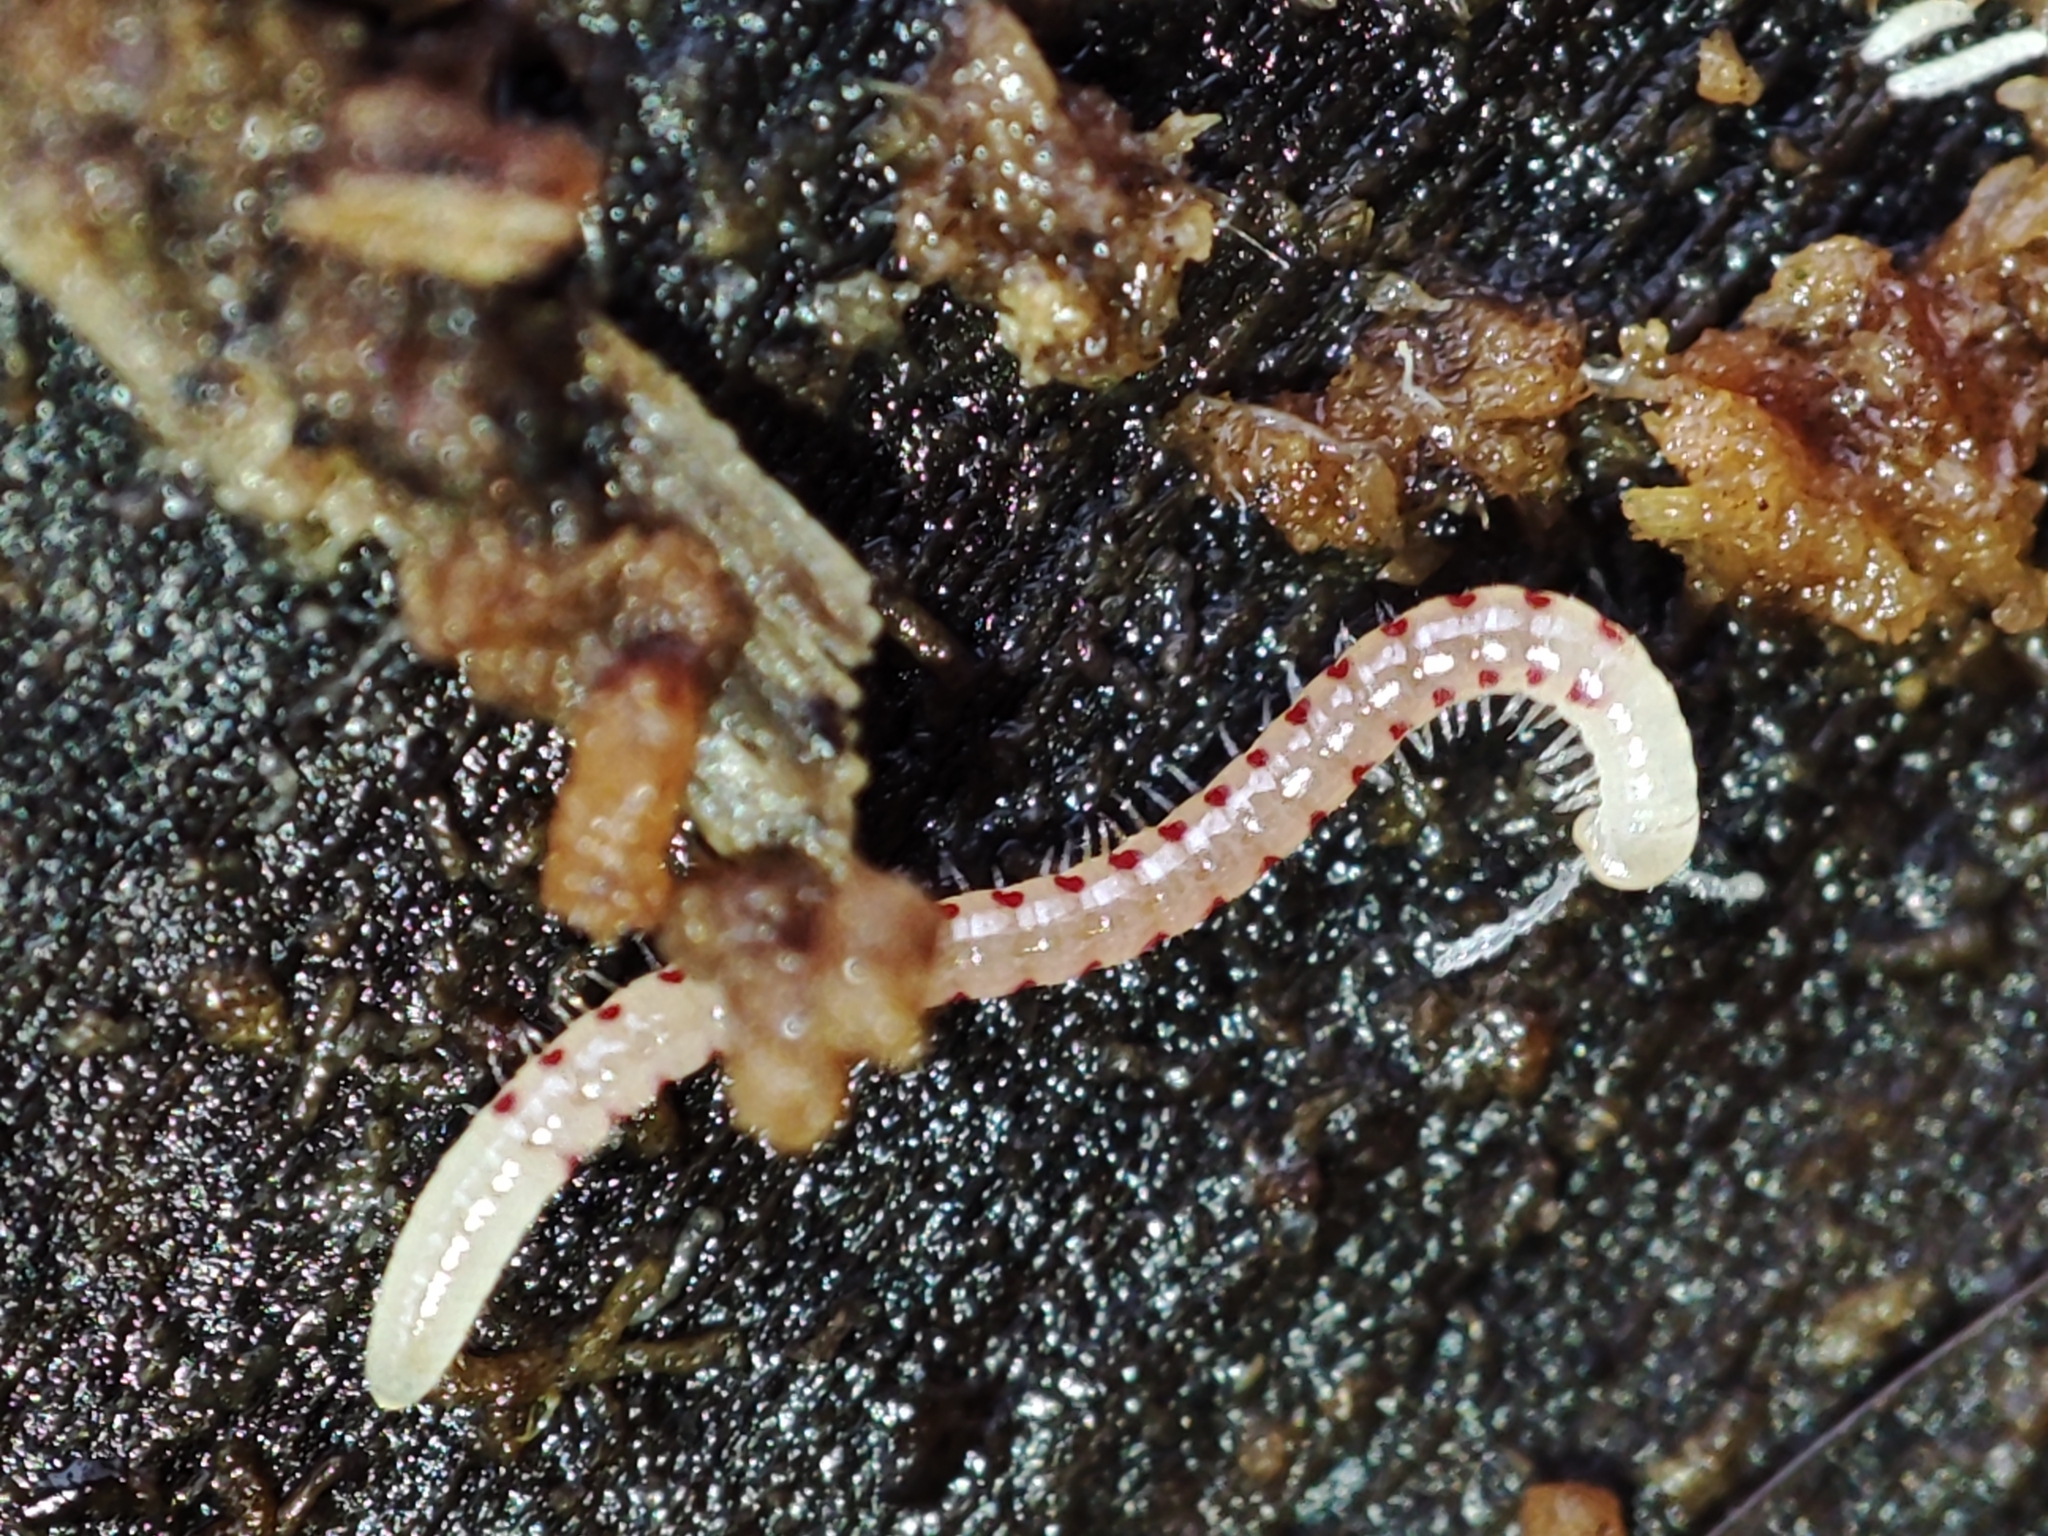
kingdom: Animalia
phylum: Arthropoda
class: Diplopoda
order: Julida
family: Blaniulidae
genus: Blaniulus
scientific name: Blaniulus guttulatus
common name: Spotted snake millipede
